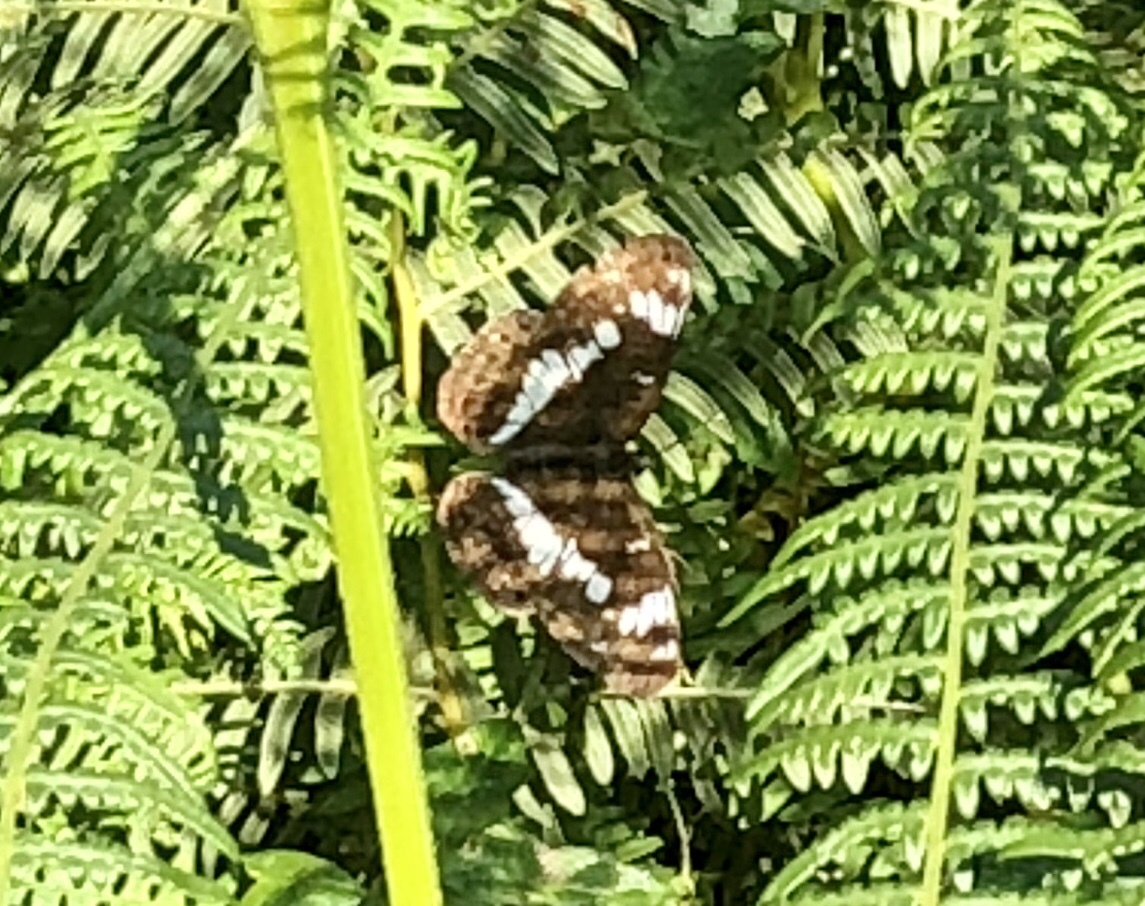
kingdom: Animalia
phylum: Arthropoda
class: Insecta
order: Lepidoptera
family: Nymphalidae
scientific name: Nymphalidae
